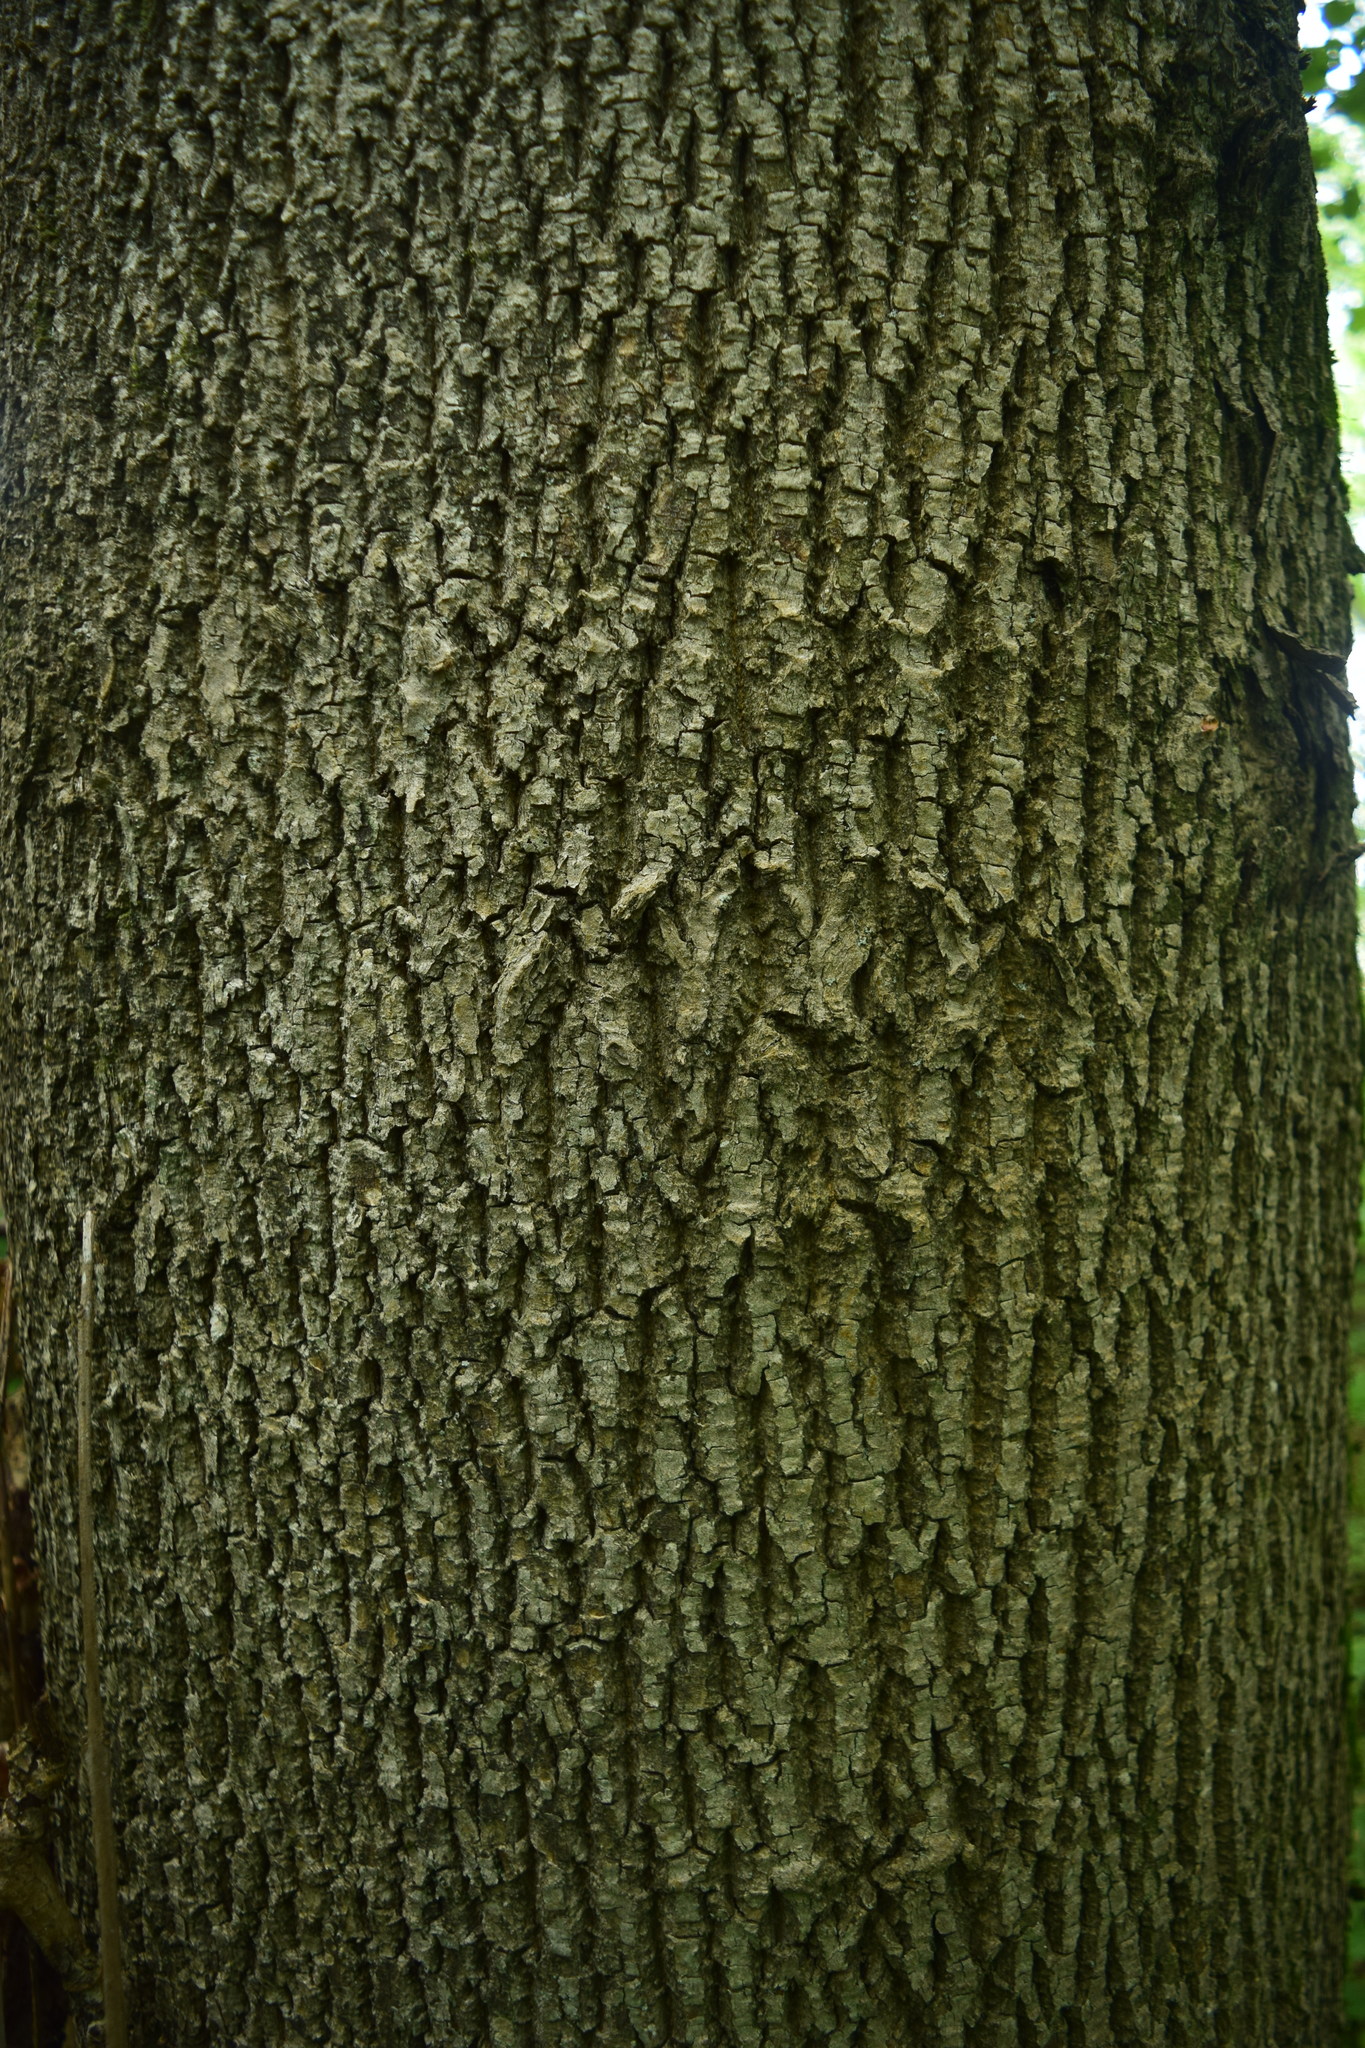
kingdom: Plantae
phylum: Tracheophyta
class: Magnoliopsida
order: Lamiales
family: Oleaceae
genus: Fraxinus
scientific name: Fraxinus excelsior
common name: European ash
